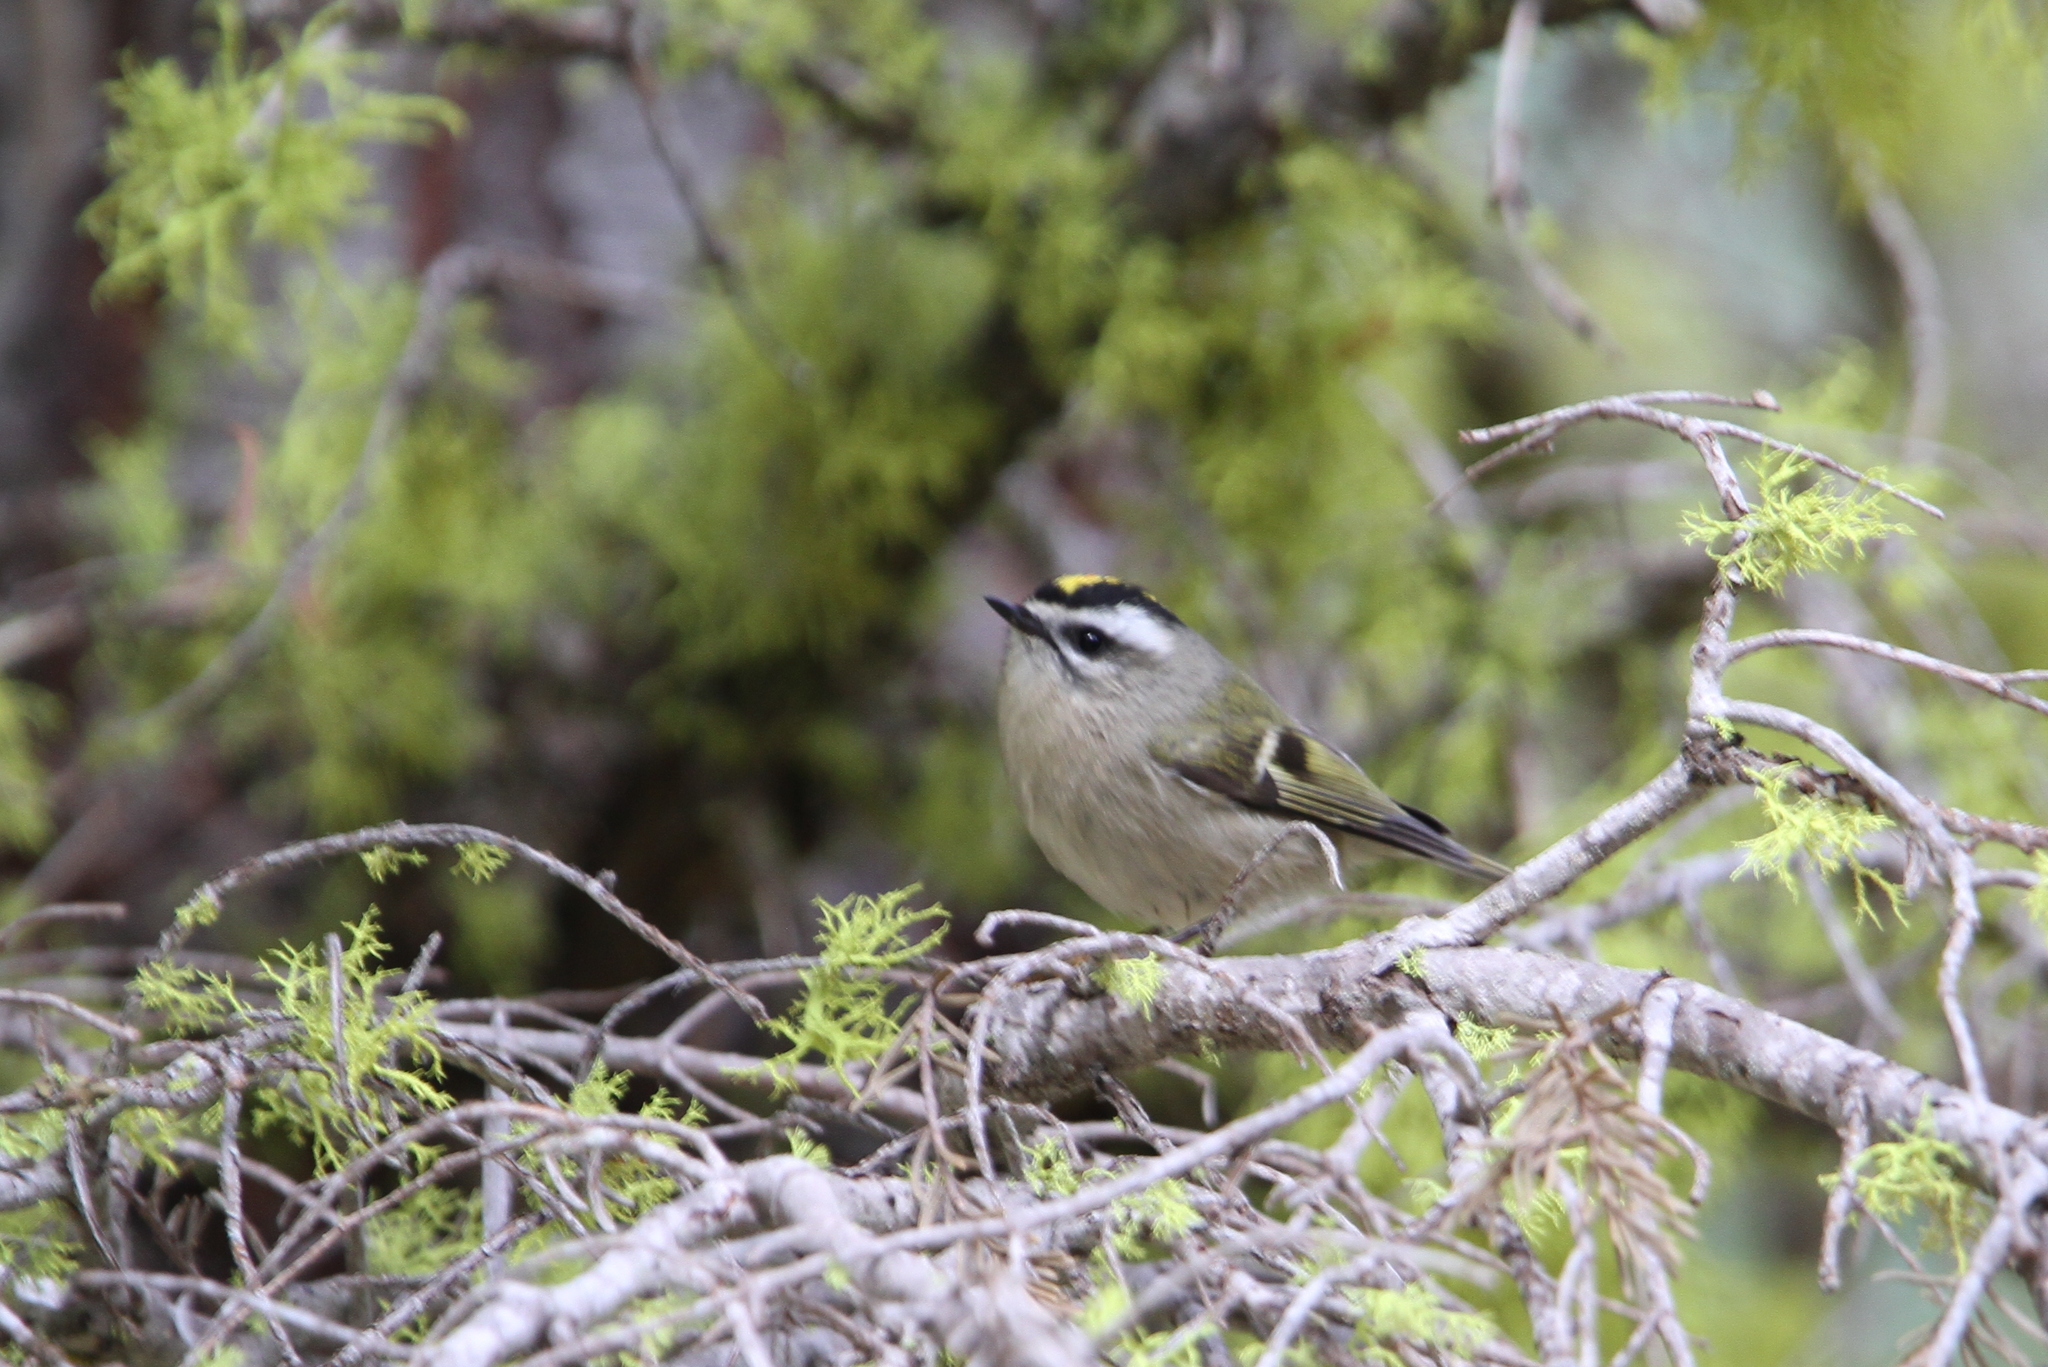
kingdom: Animalia
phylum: Chordata
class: Aves
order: Passeriformes
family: Regulidae
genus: Regulus
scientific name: Regulus satrapa
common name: Golden-crowned kinglet
